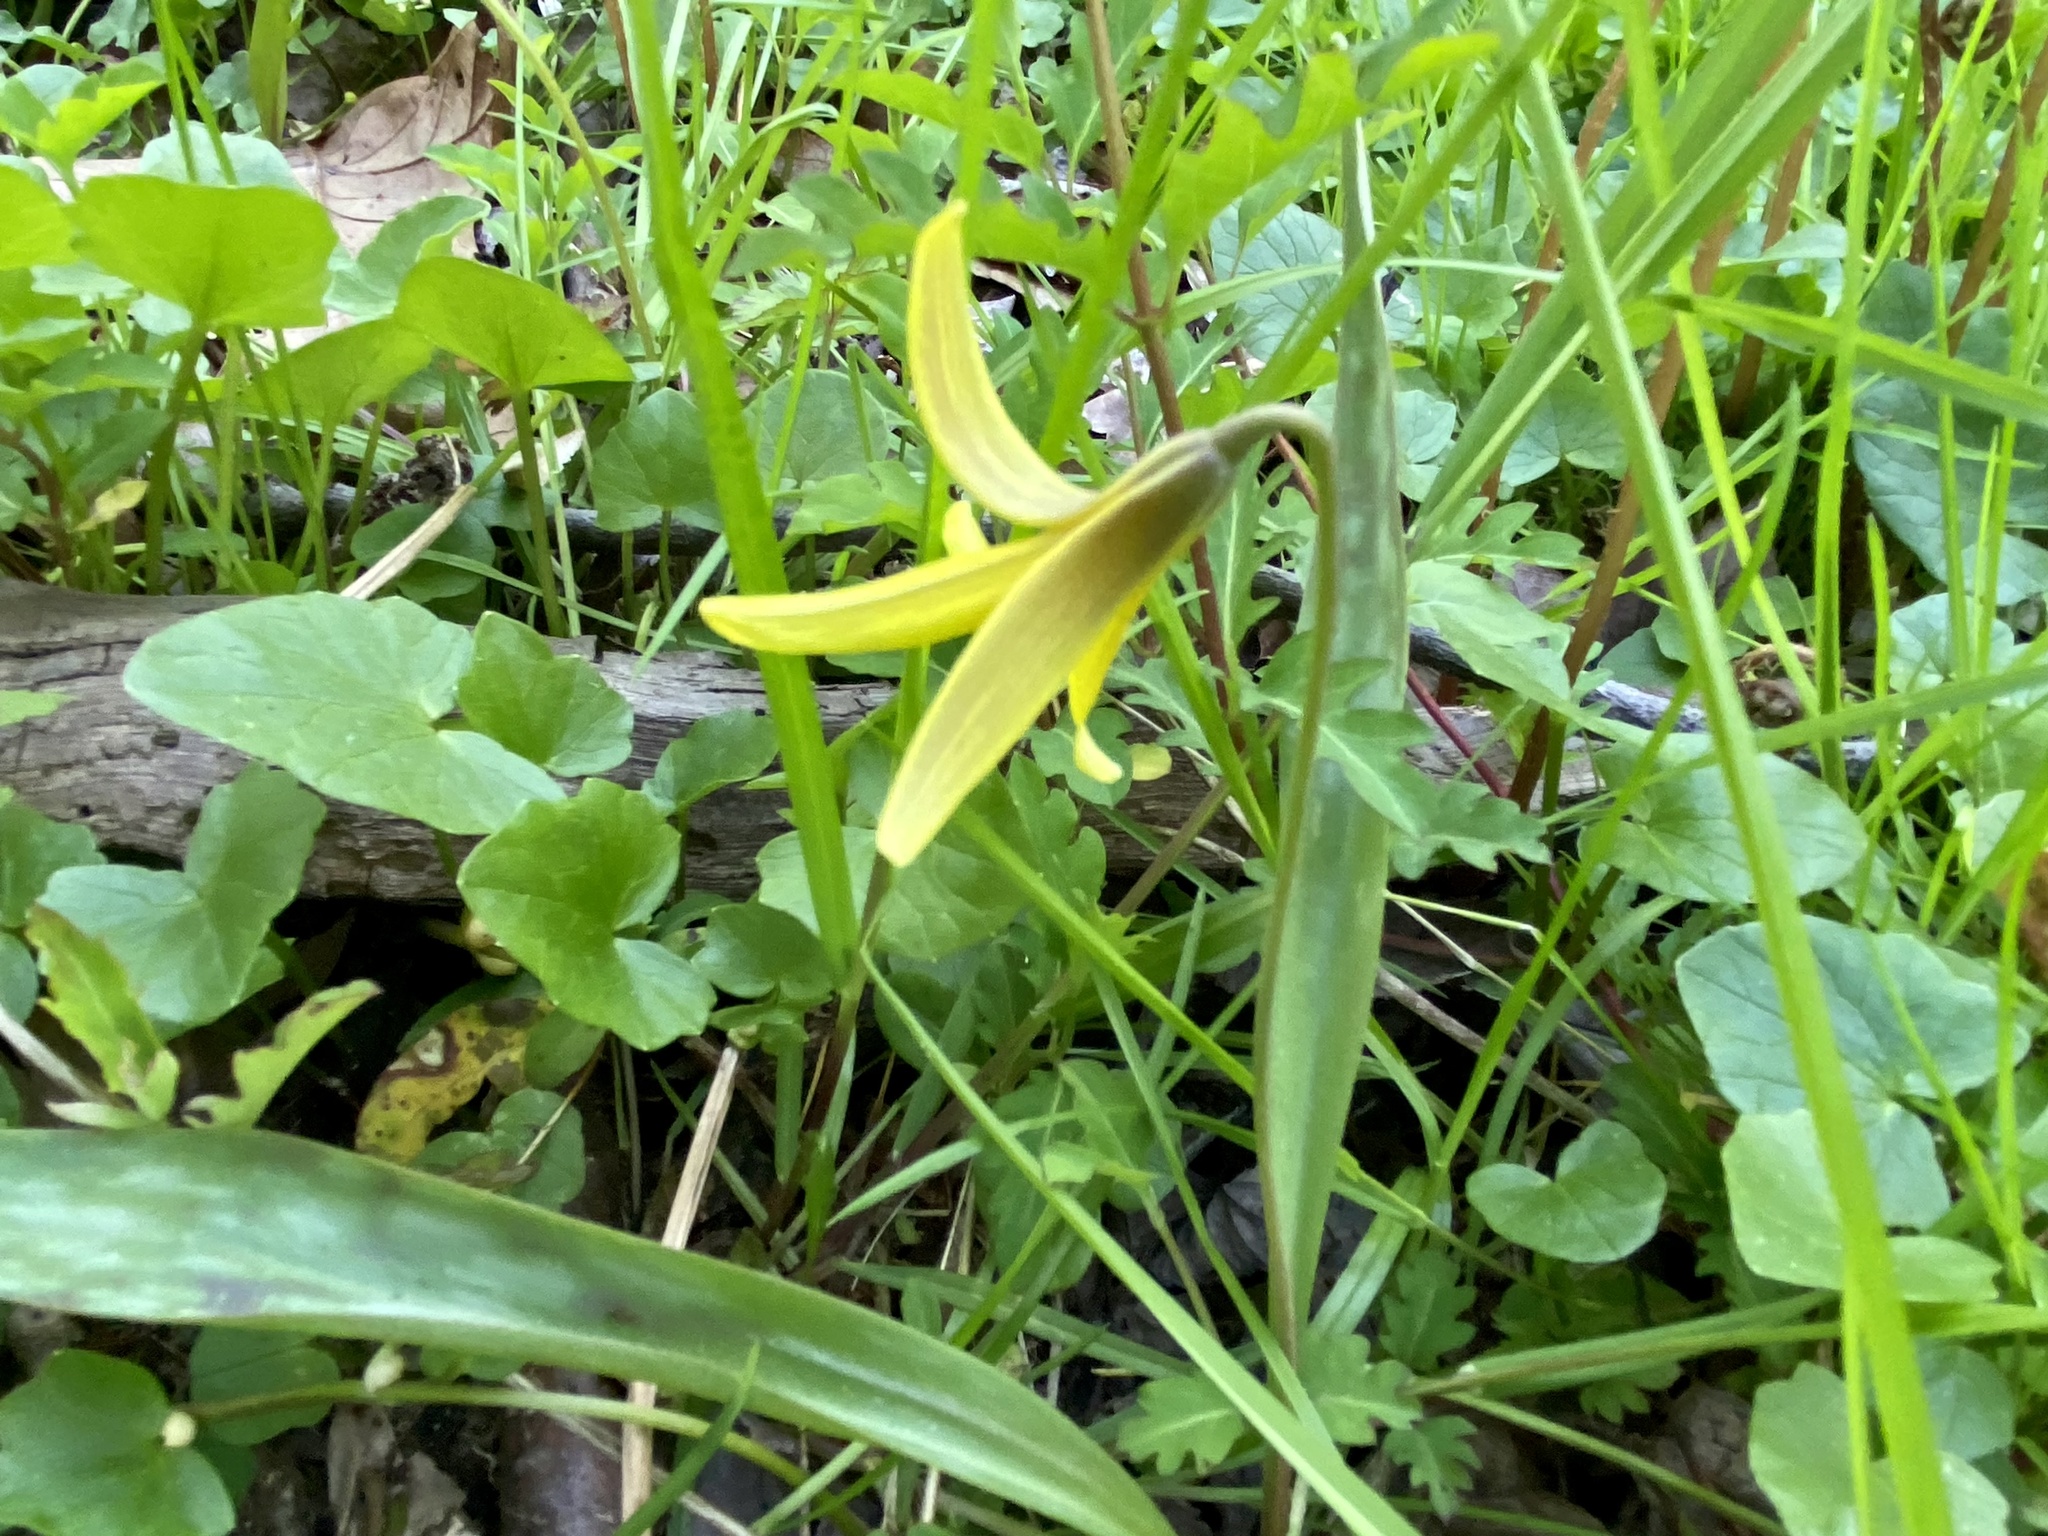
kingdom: Plantae
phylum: Tracheophyta
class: Liliopsida
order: Liliales
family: Liliaceae
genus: Erythronium
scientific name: Erythronium americanum
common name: Yellow adder's-tongue
